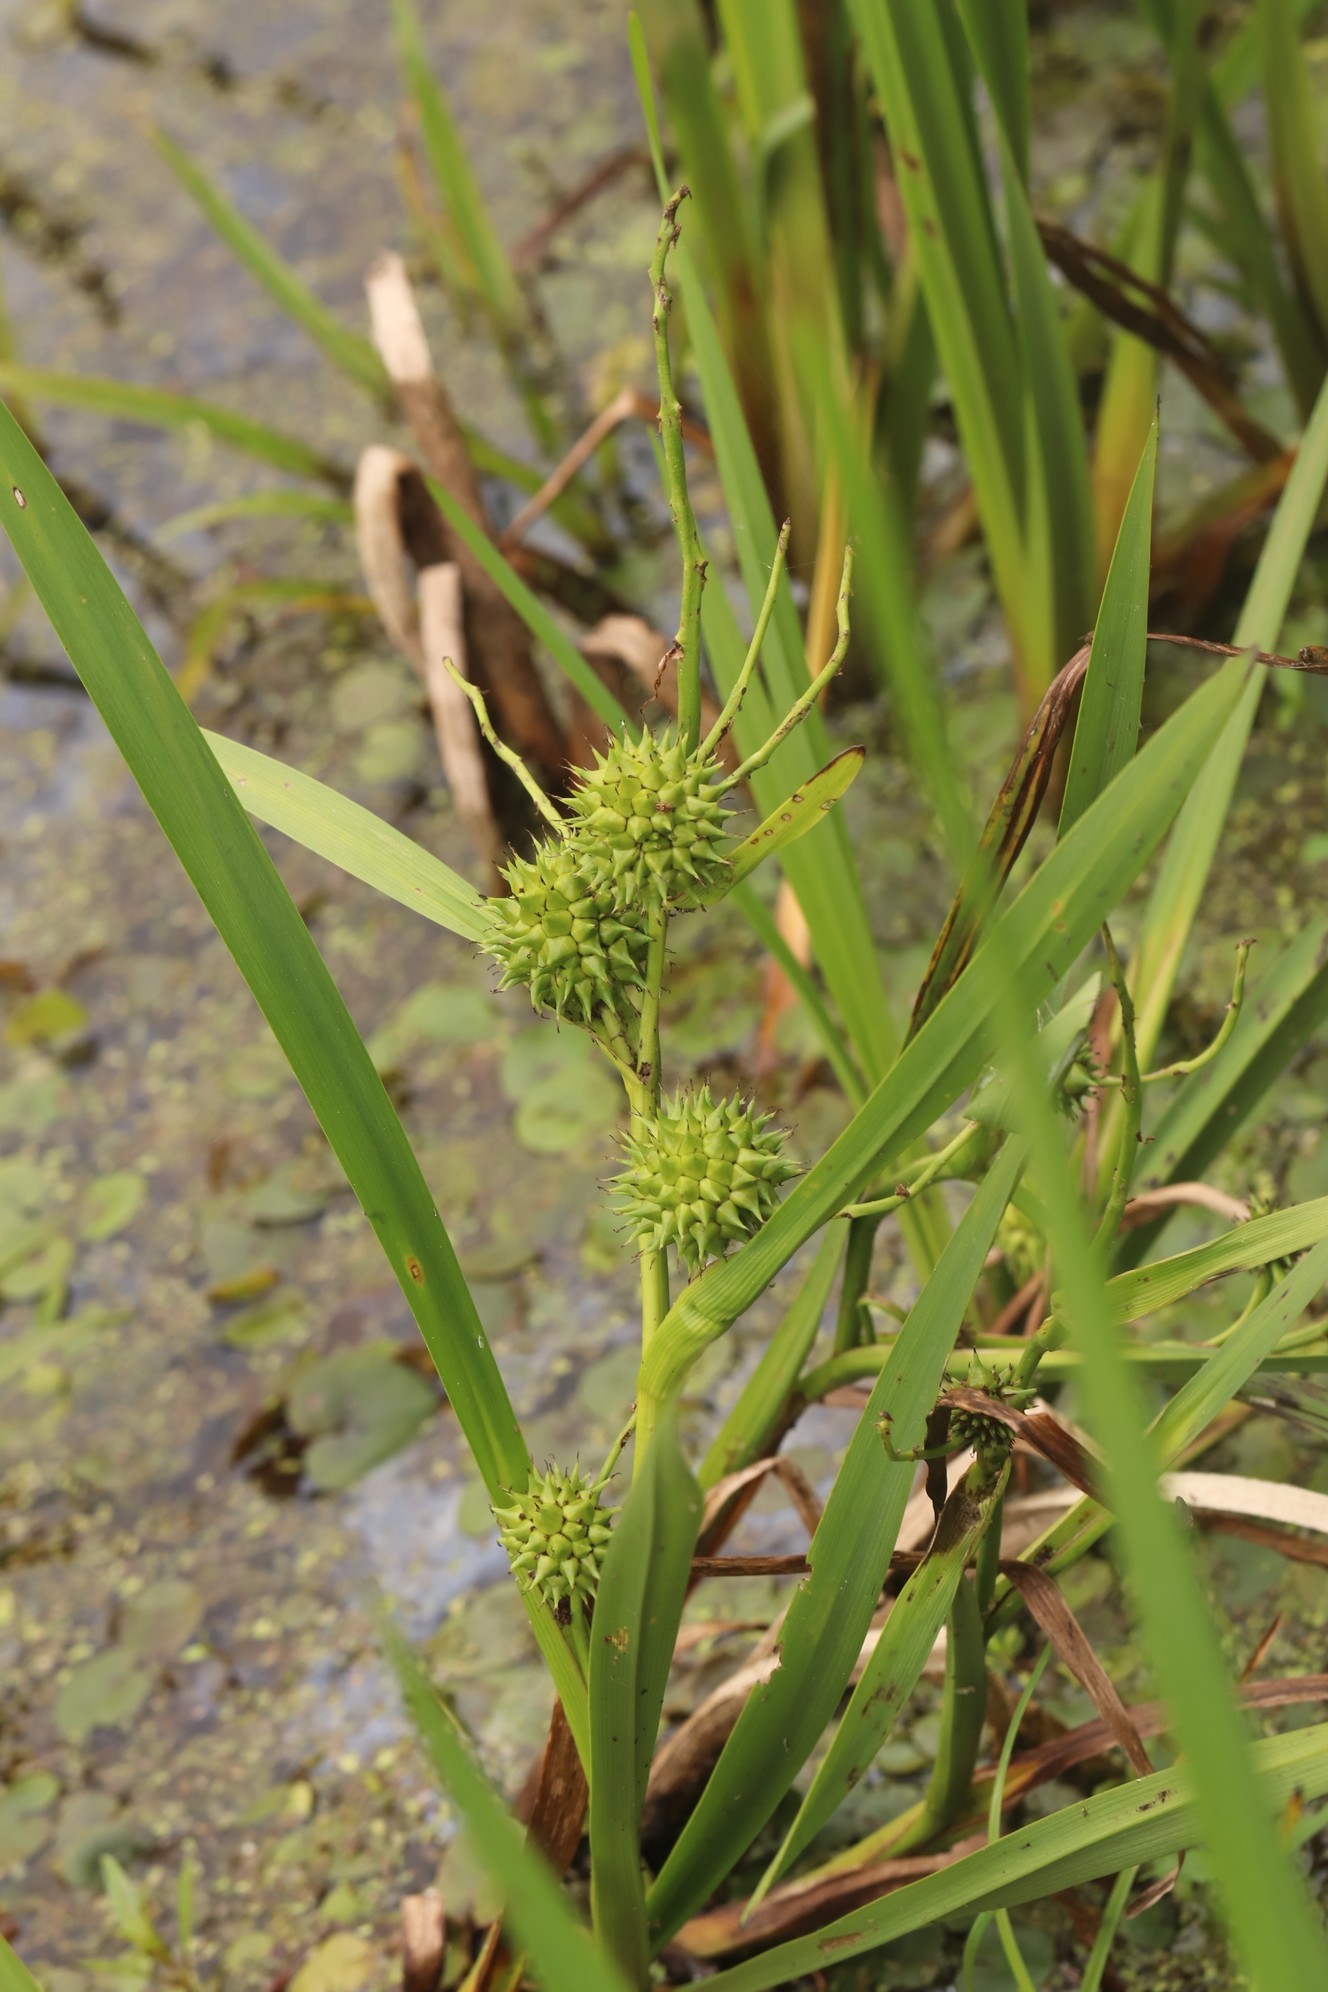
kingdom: Plantae
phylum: Tracheophyta
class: Liliopsida
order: Poales
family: Typhaceae
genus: Sparganium
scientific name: Sparganium erectum
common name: Branched bur-reed
